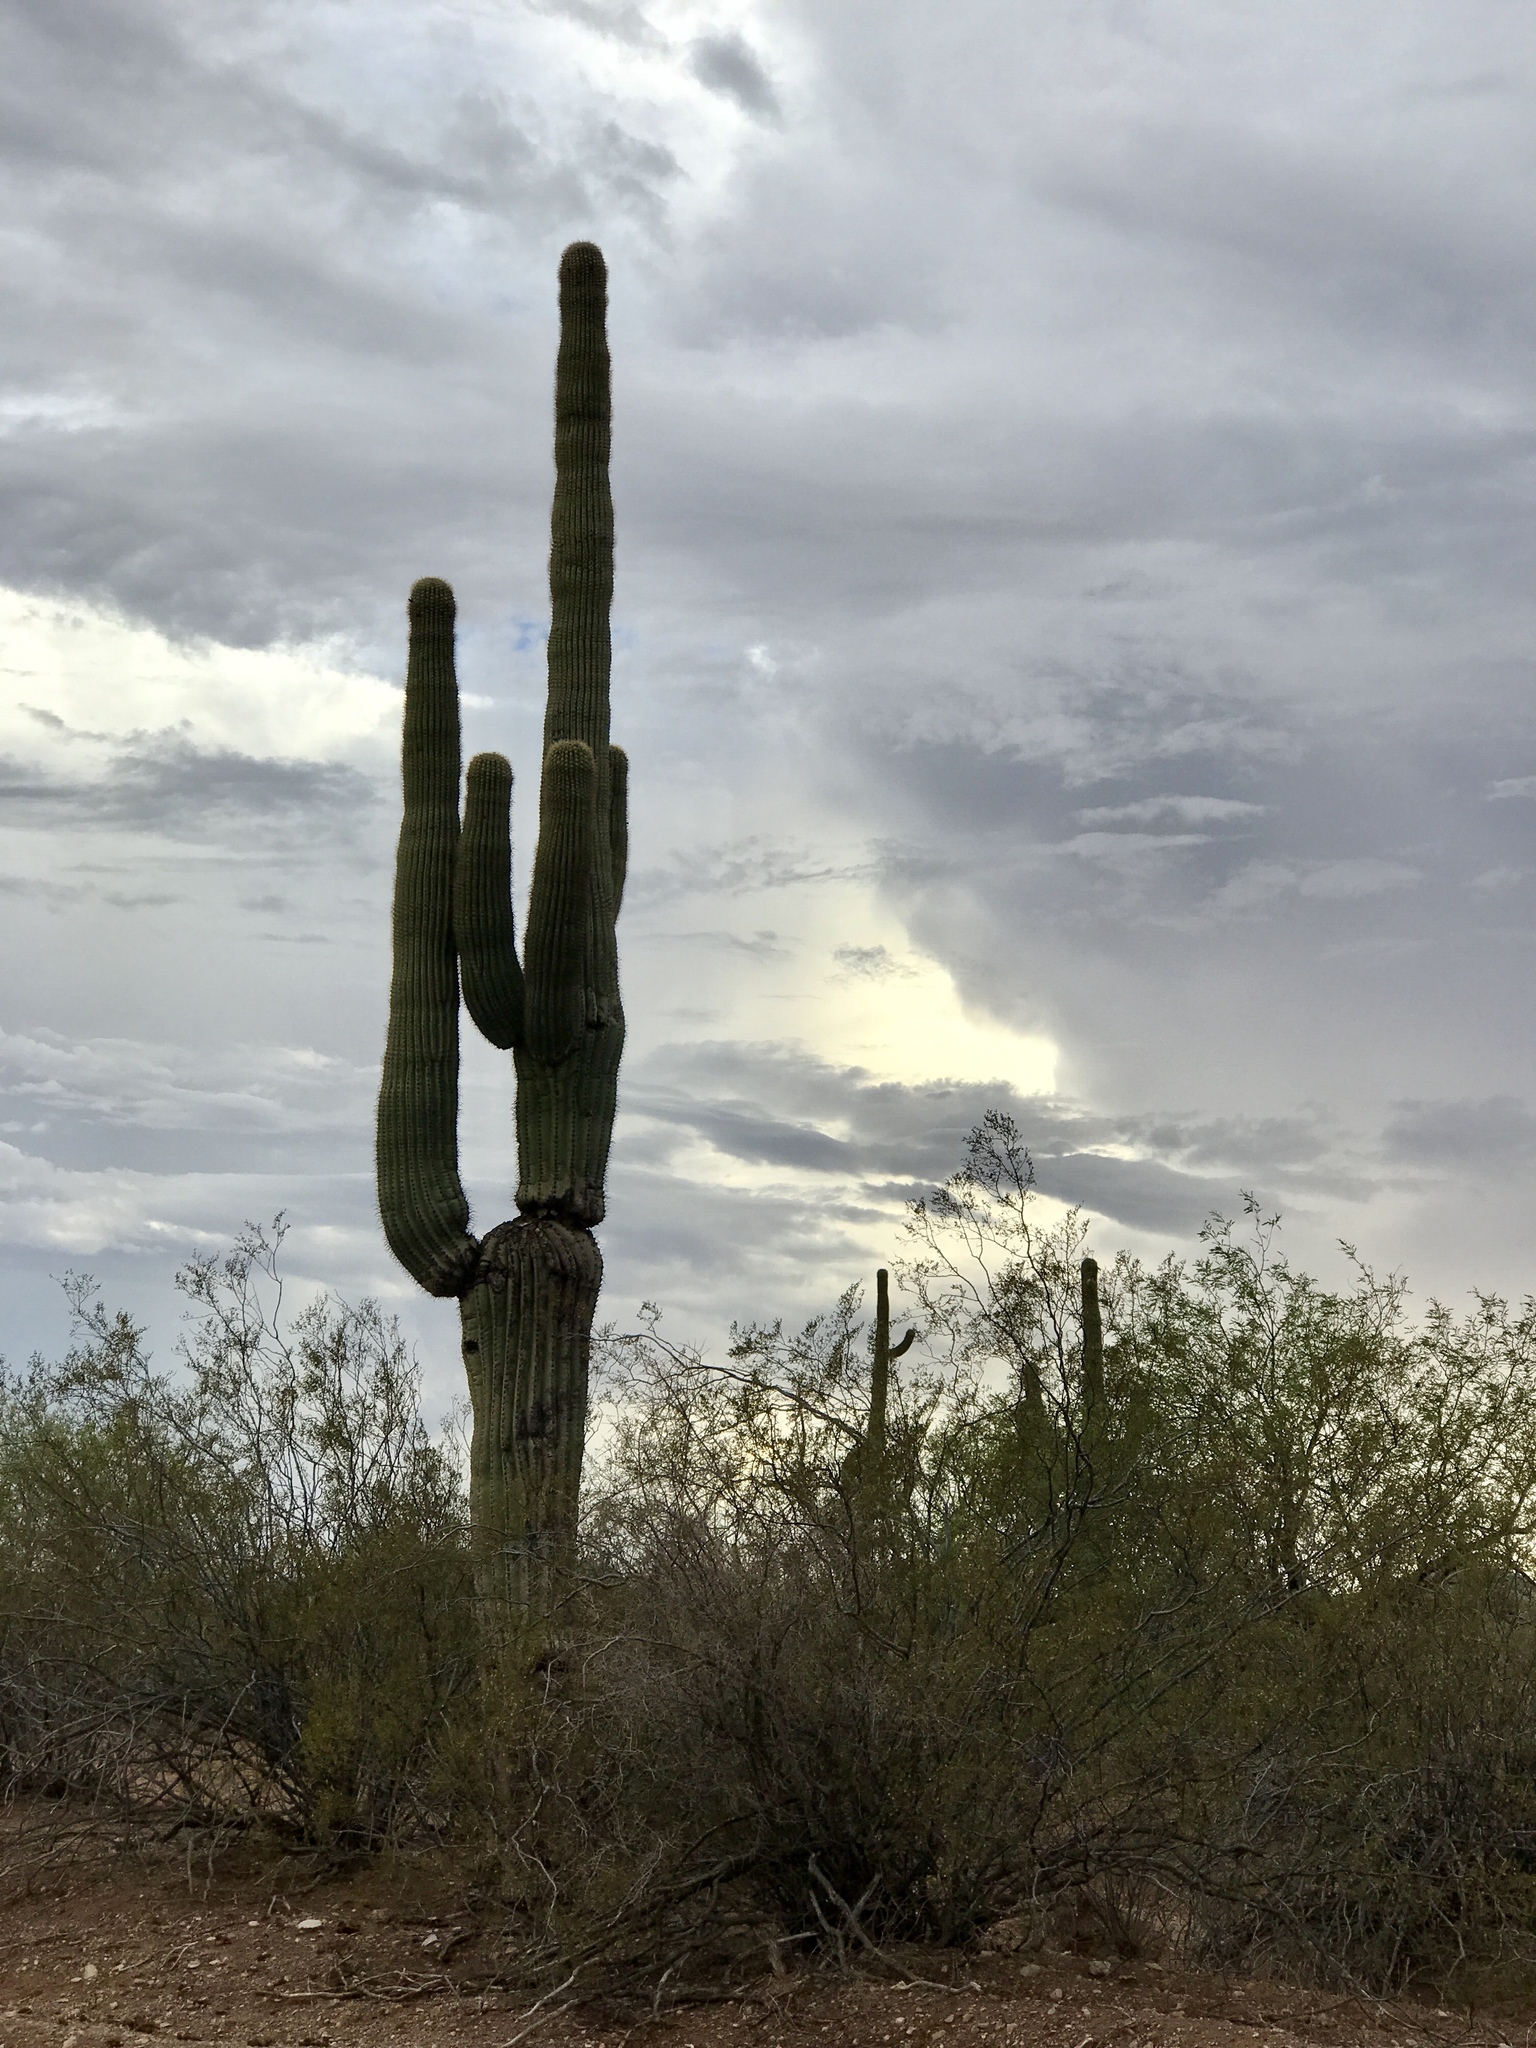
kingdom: Plantae
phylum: Tracheophyta
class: Magnoliopsida
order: Caryophyllales
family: Cactaceae
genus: Carnegiea
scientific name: Carnegiea gigantea
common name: Saguaro
